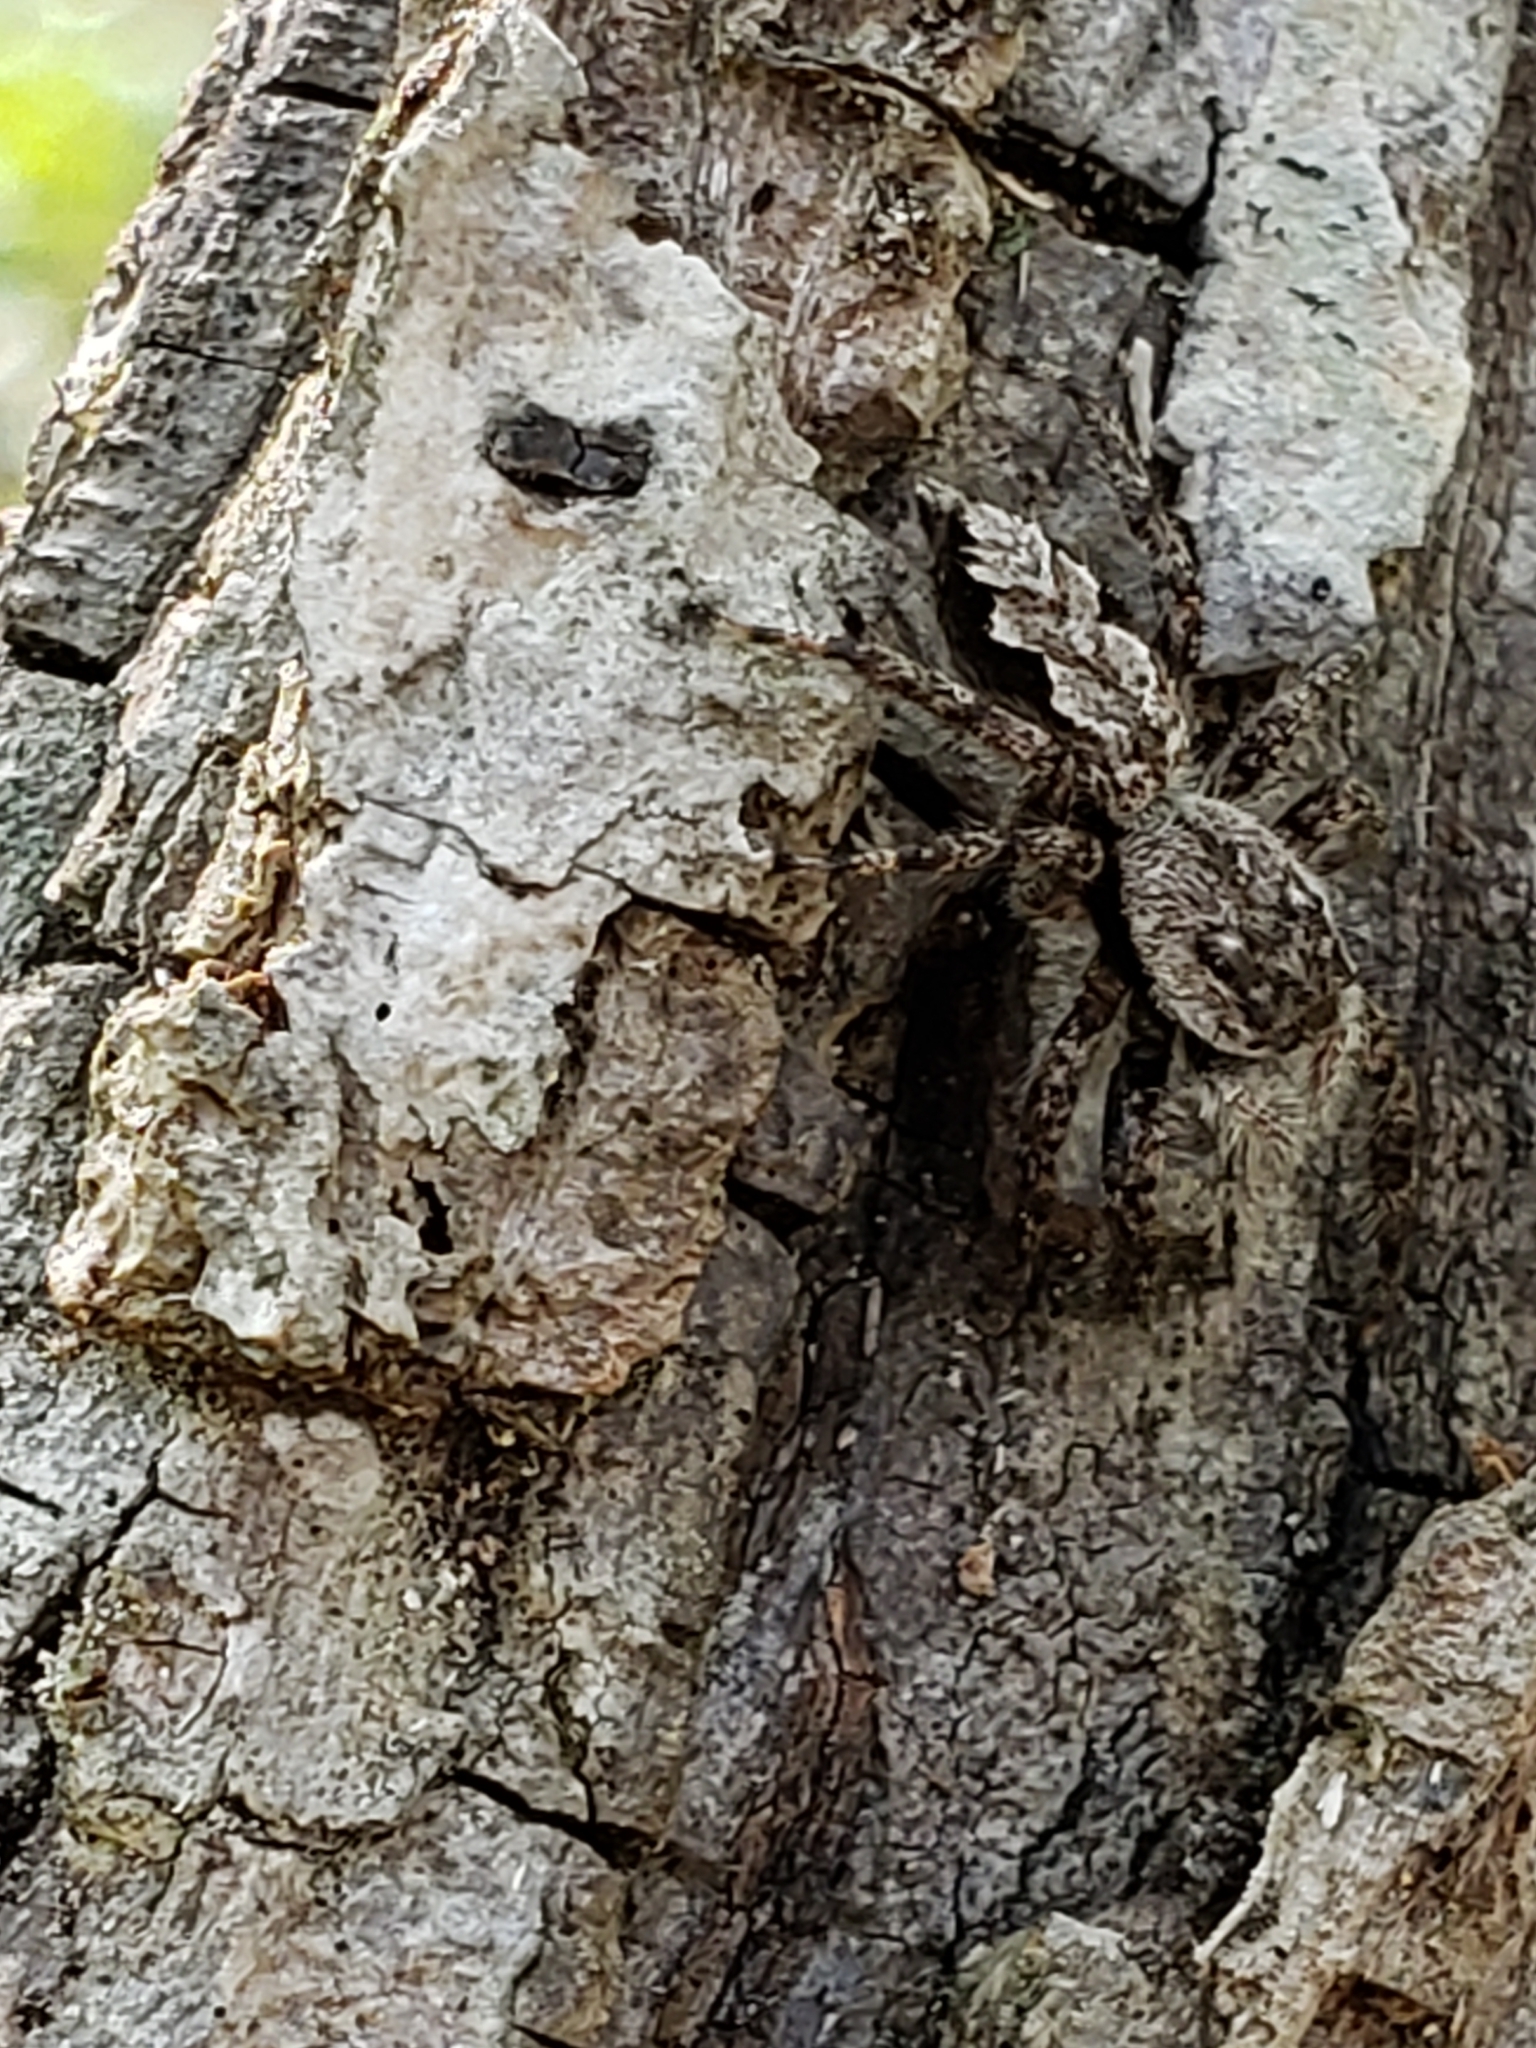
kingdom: Animalia
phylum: Arthropoda
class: Arachnida
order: Araneae
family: Salticidae
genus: Platycryptus
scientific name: Platycryptus undatus
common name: Tan jumping spider
